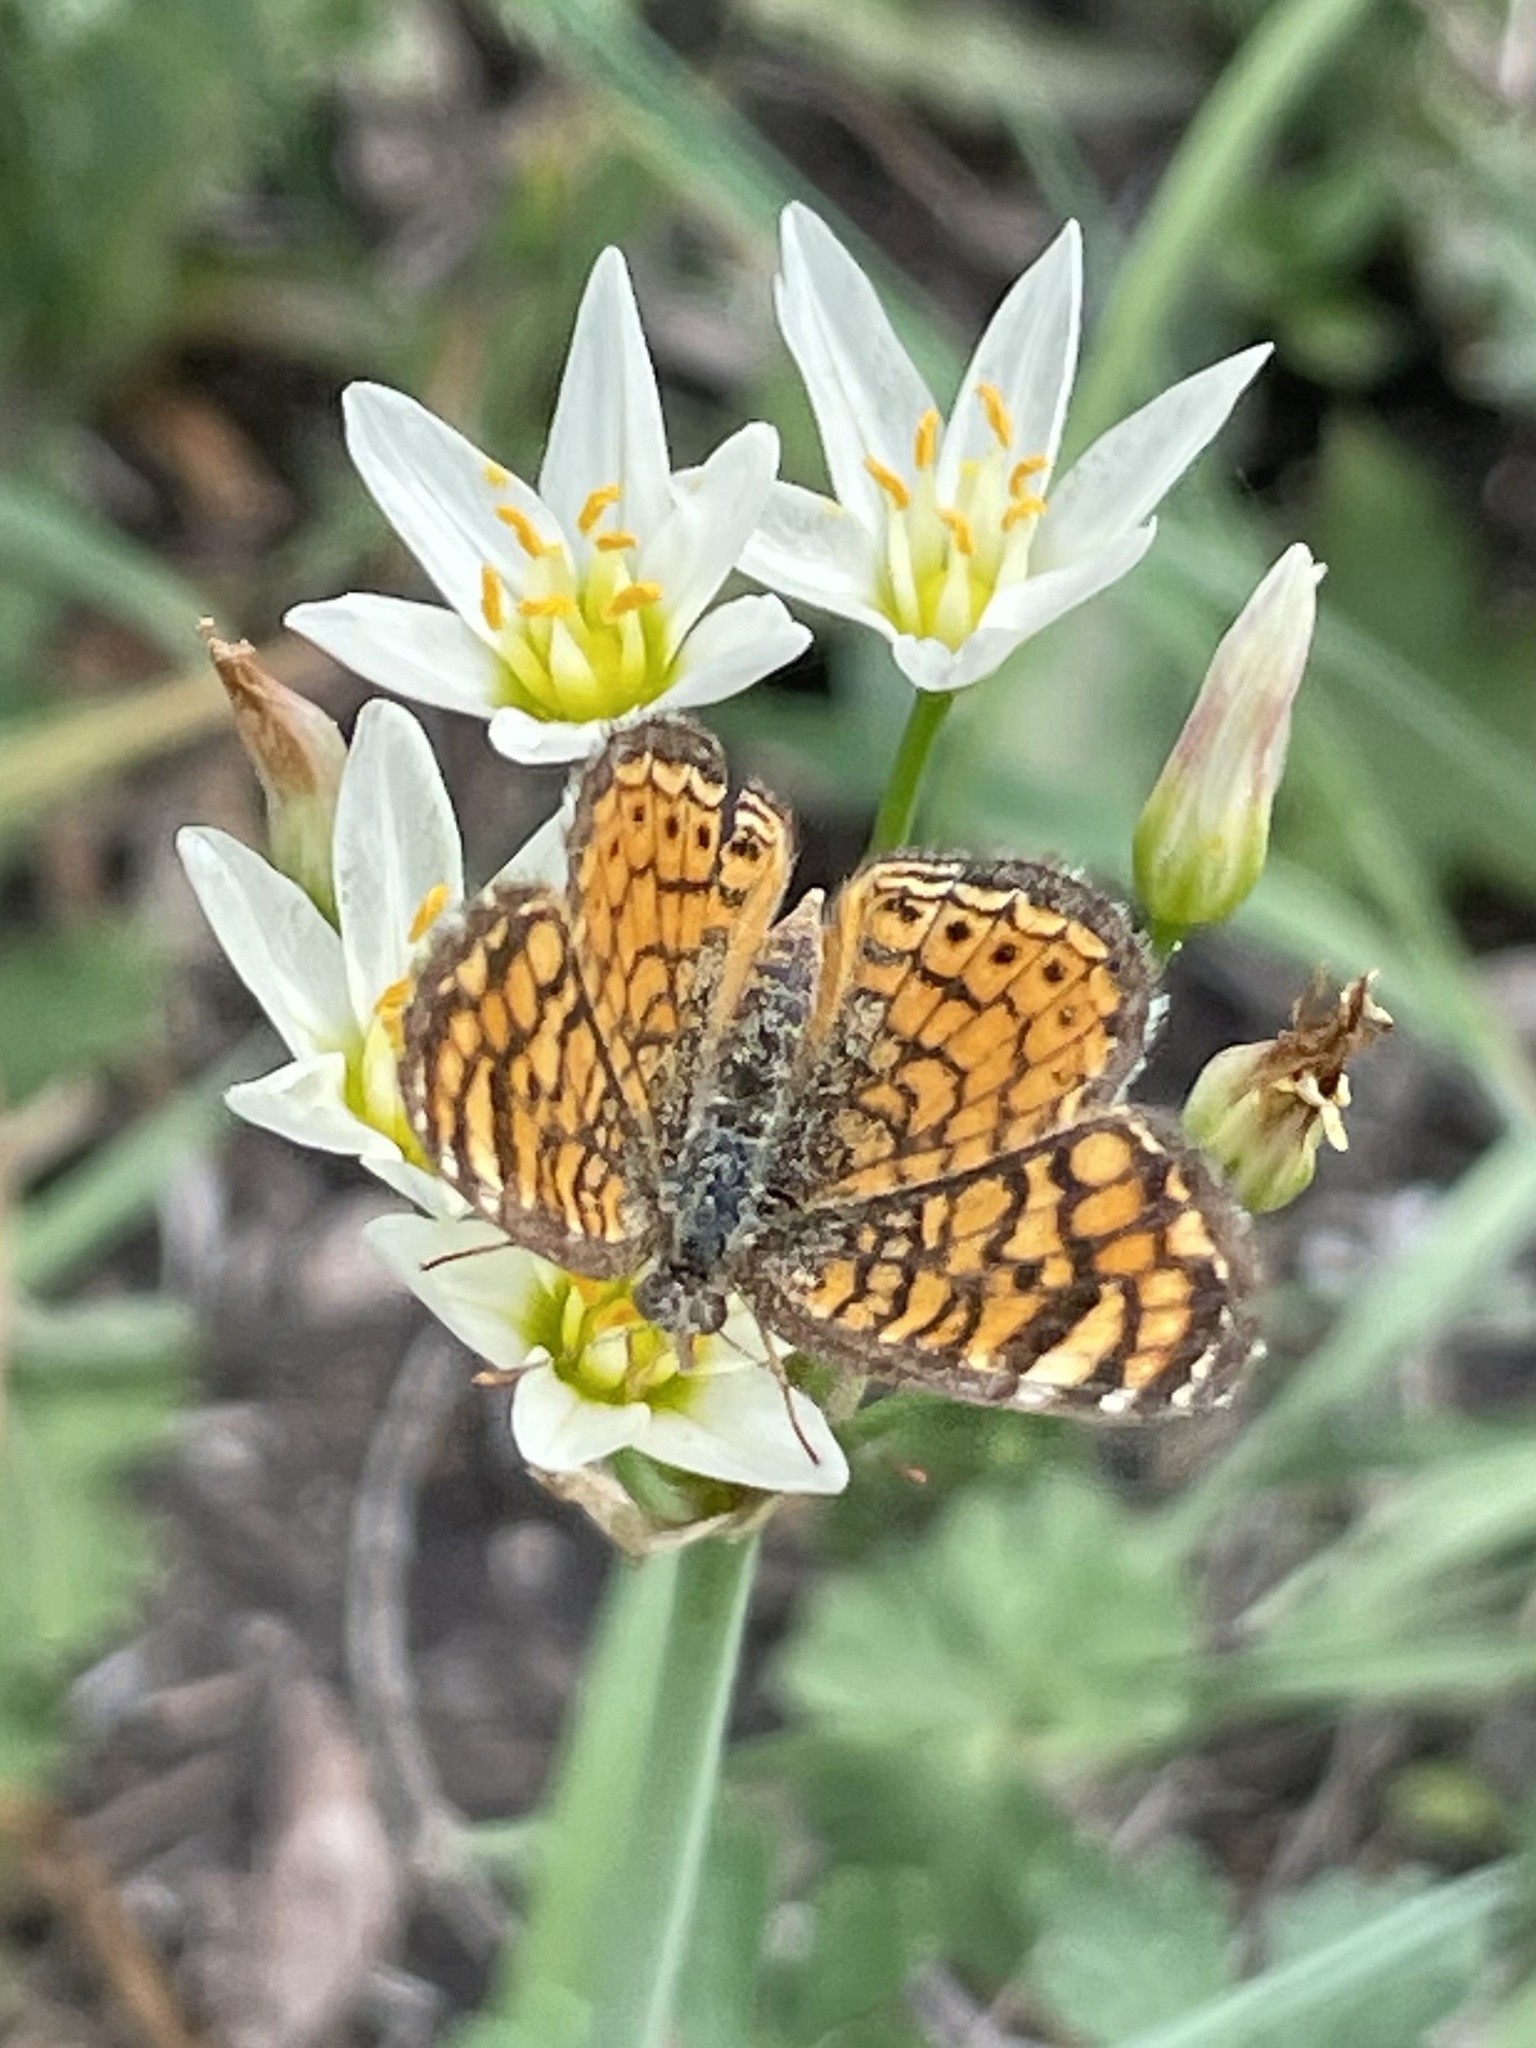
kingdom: Animalia
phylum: Arthropoda
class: Insecta
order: Lepidoptera
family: Nymphalidae
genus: Phyciodes
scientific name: Phyciodes vesta
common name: Vesta crescent
